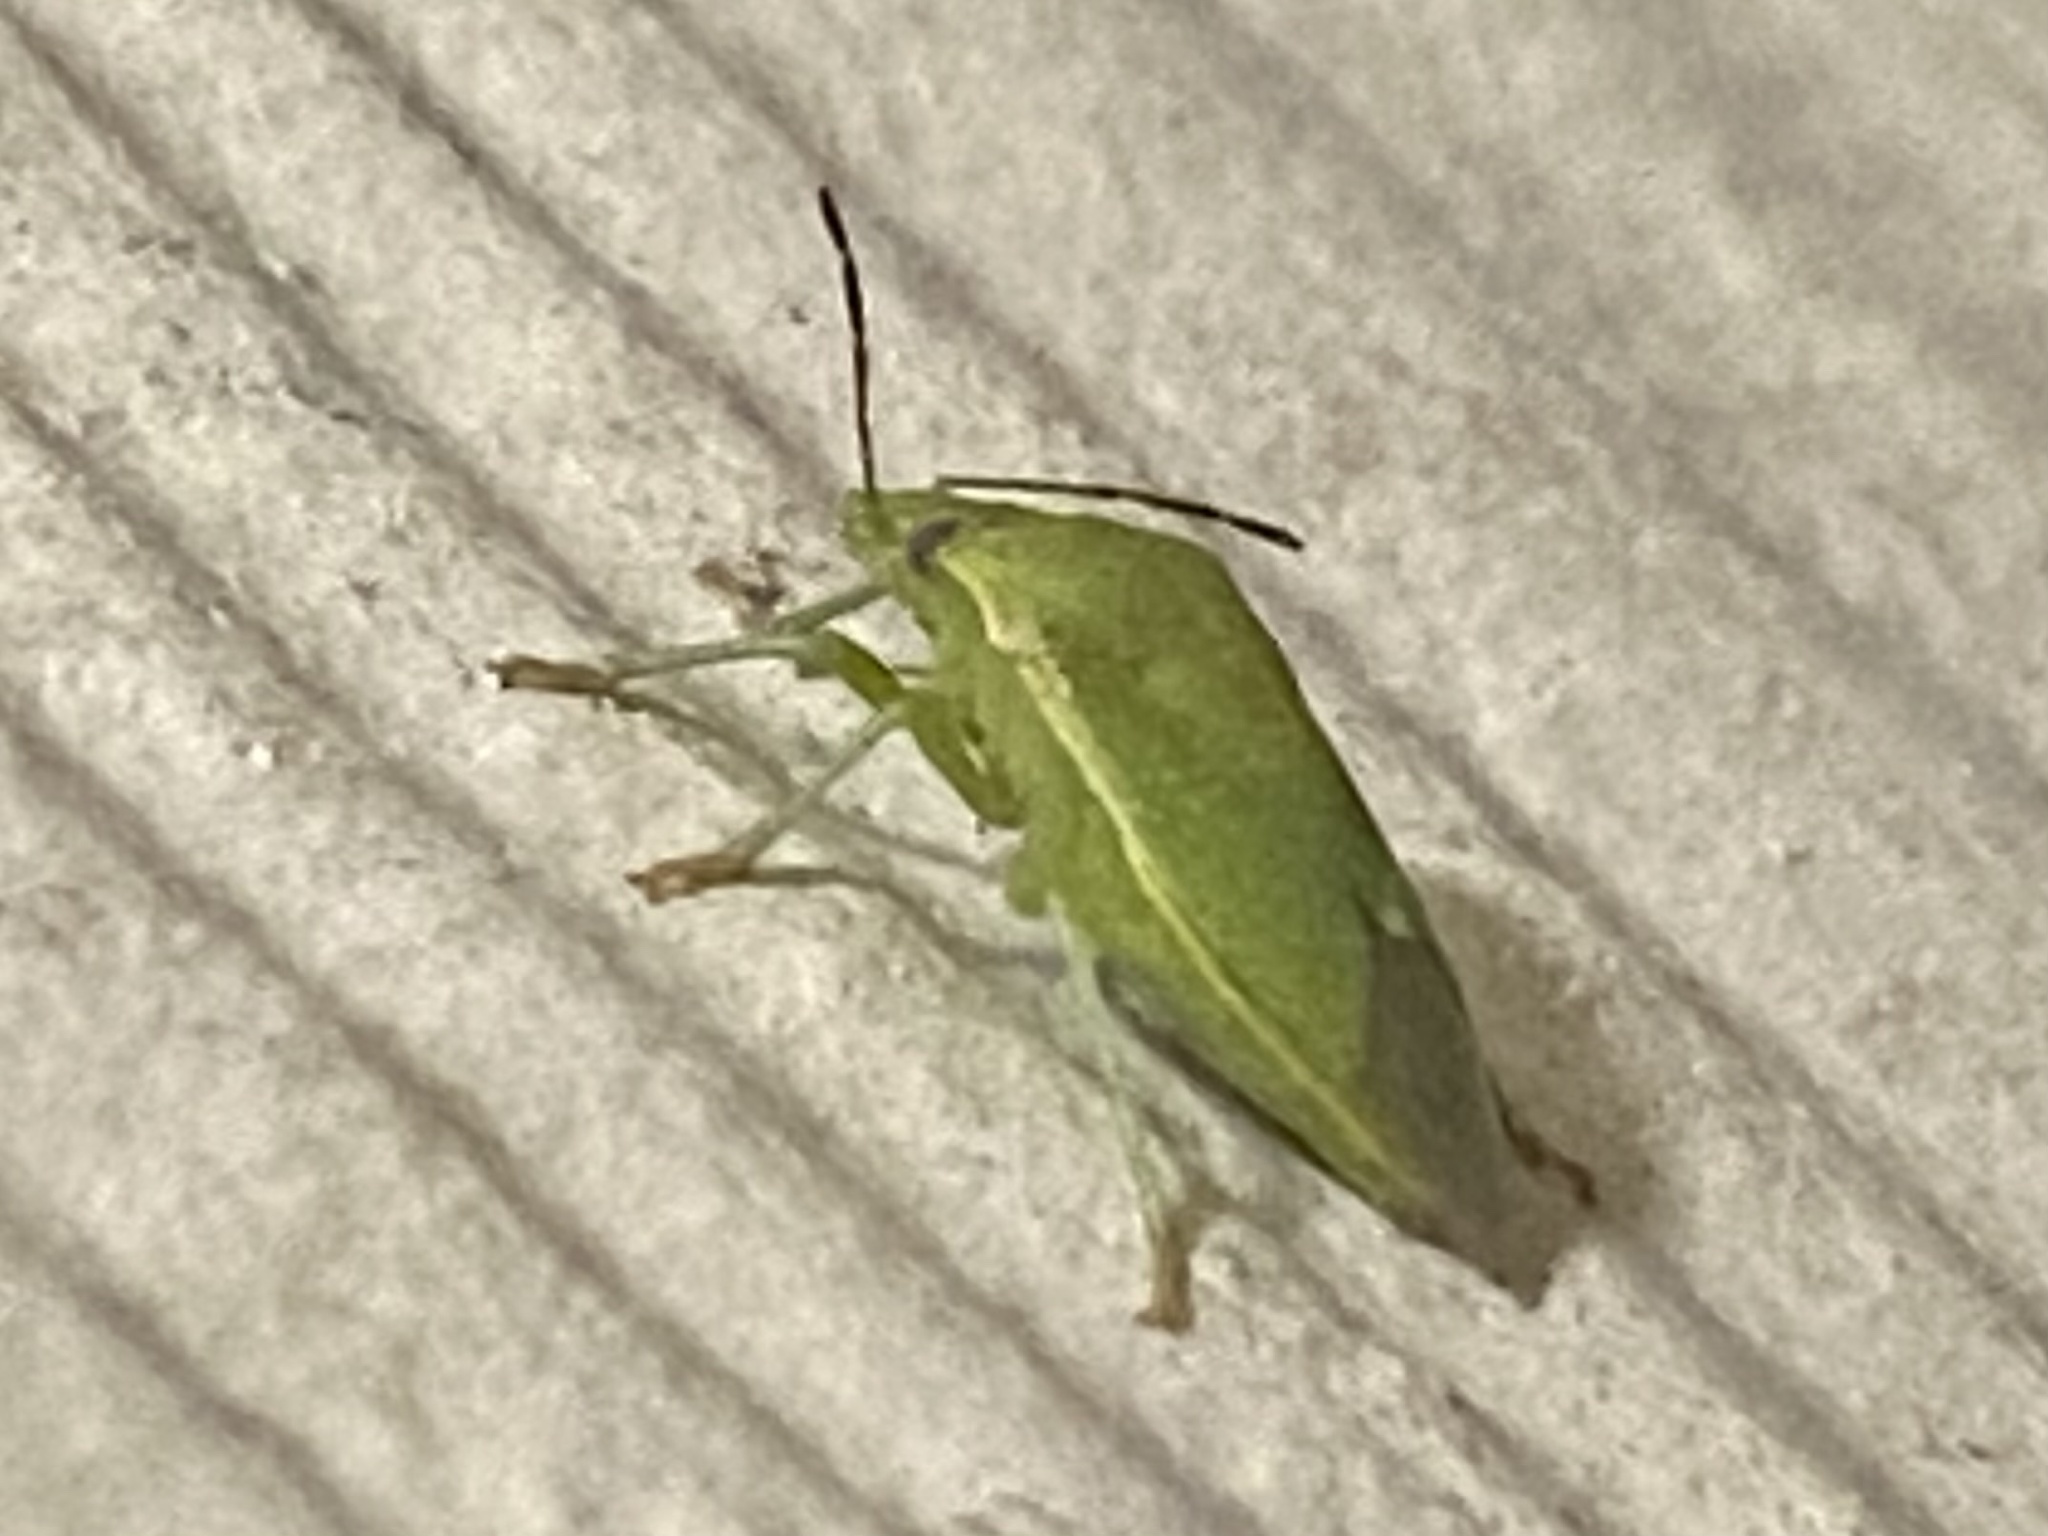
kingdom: Animalia
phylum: Arthropoda
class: Insecta
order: Hemiptera
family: Pentatomidae
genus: Thyanta
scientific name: Thyanta accerra
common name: Stink bug
